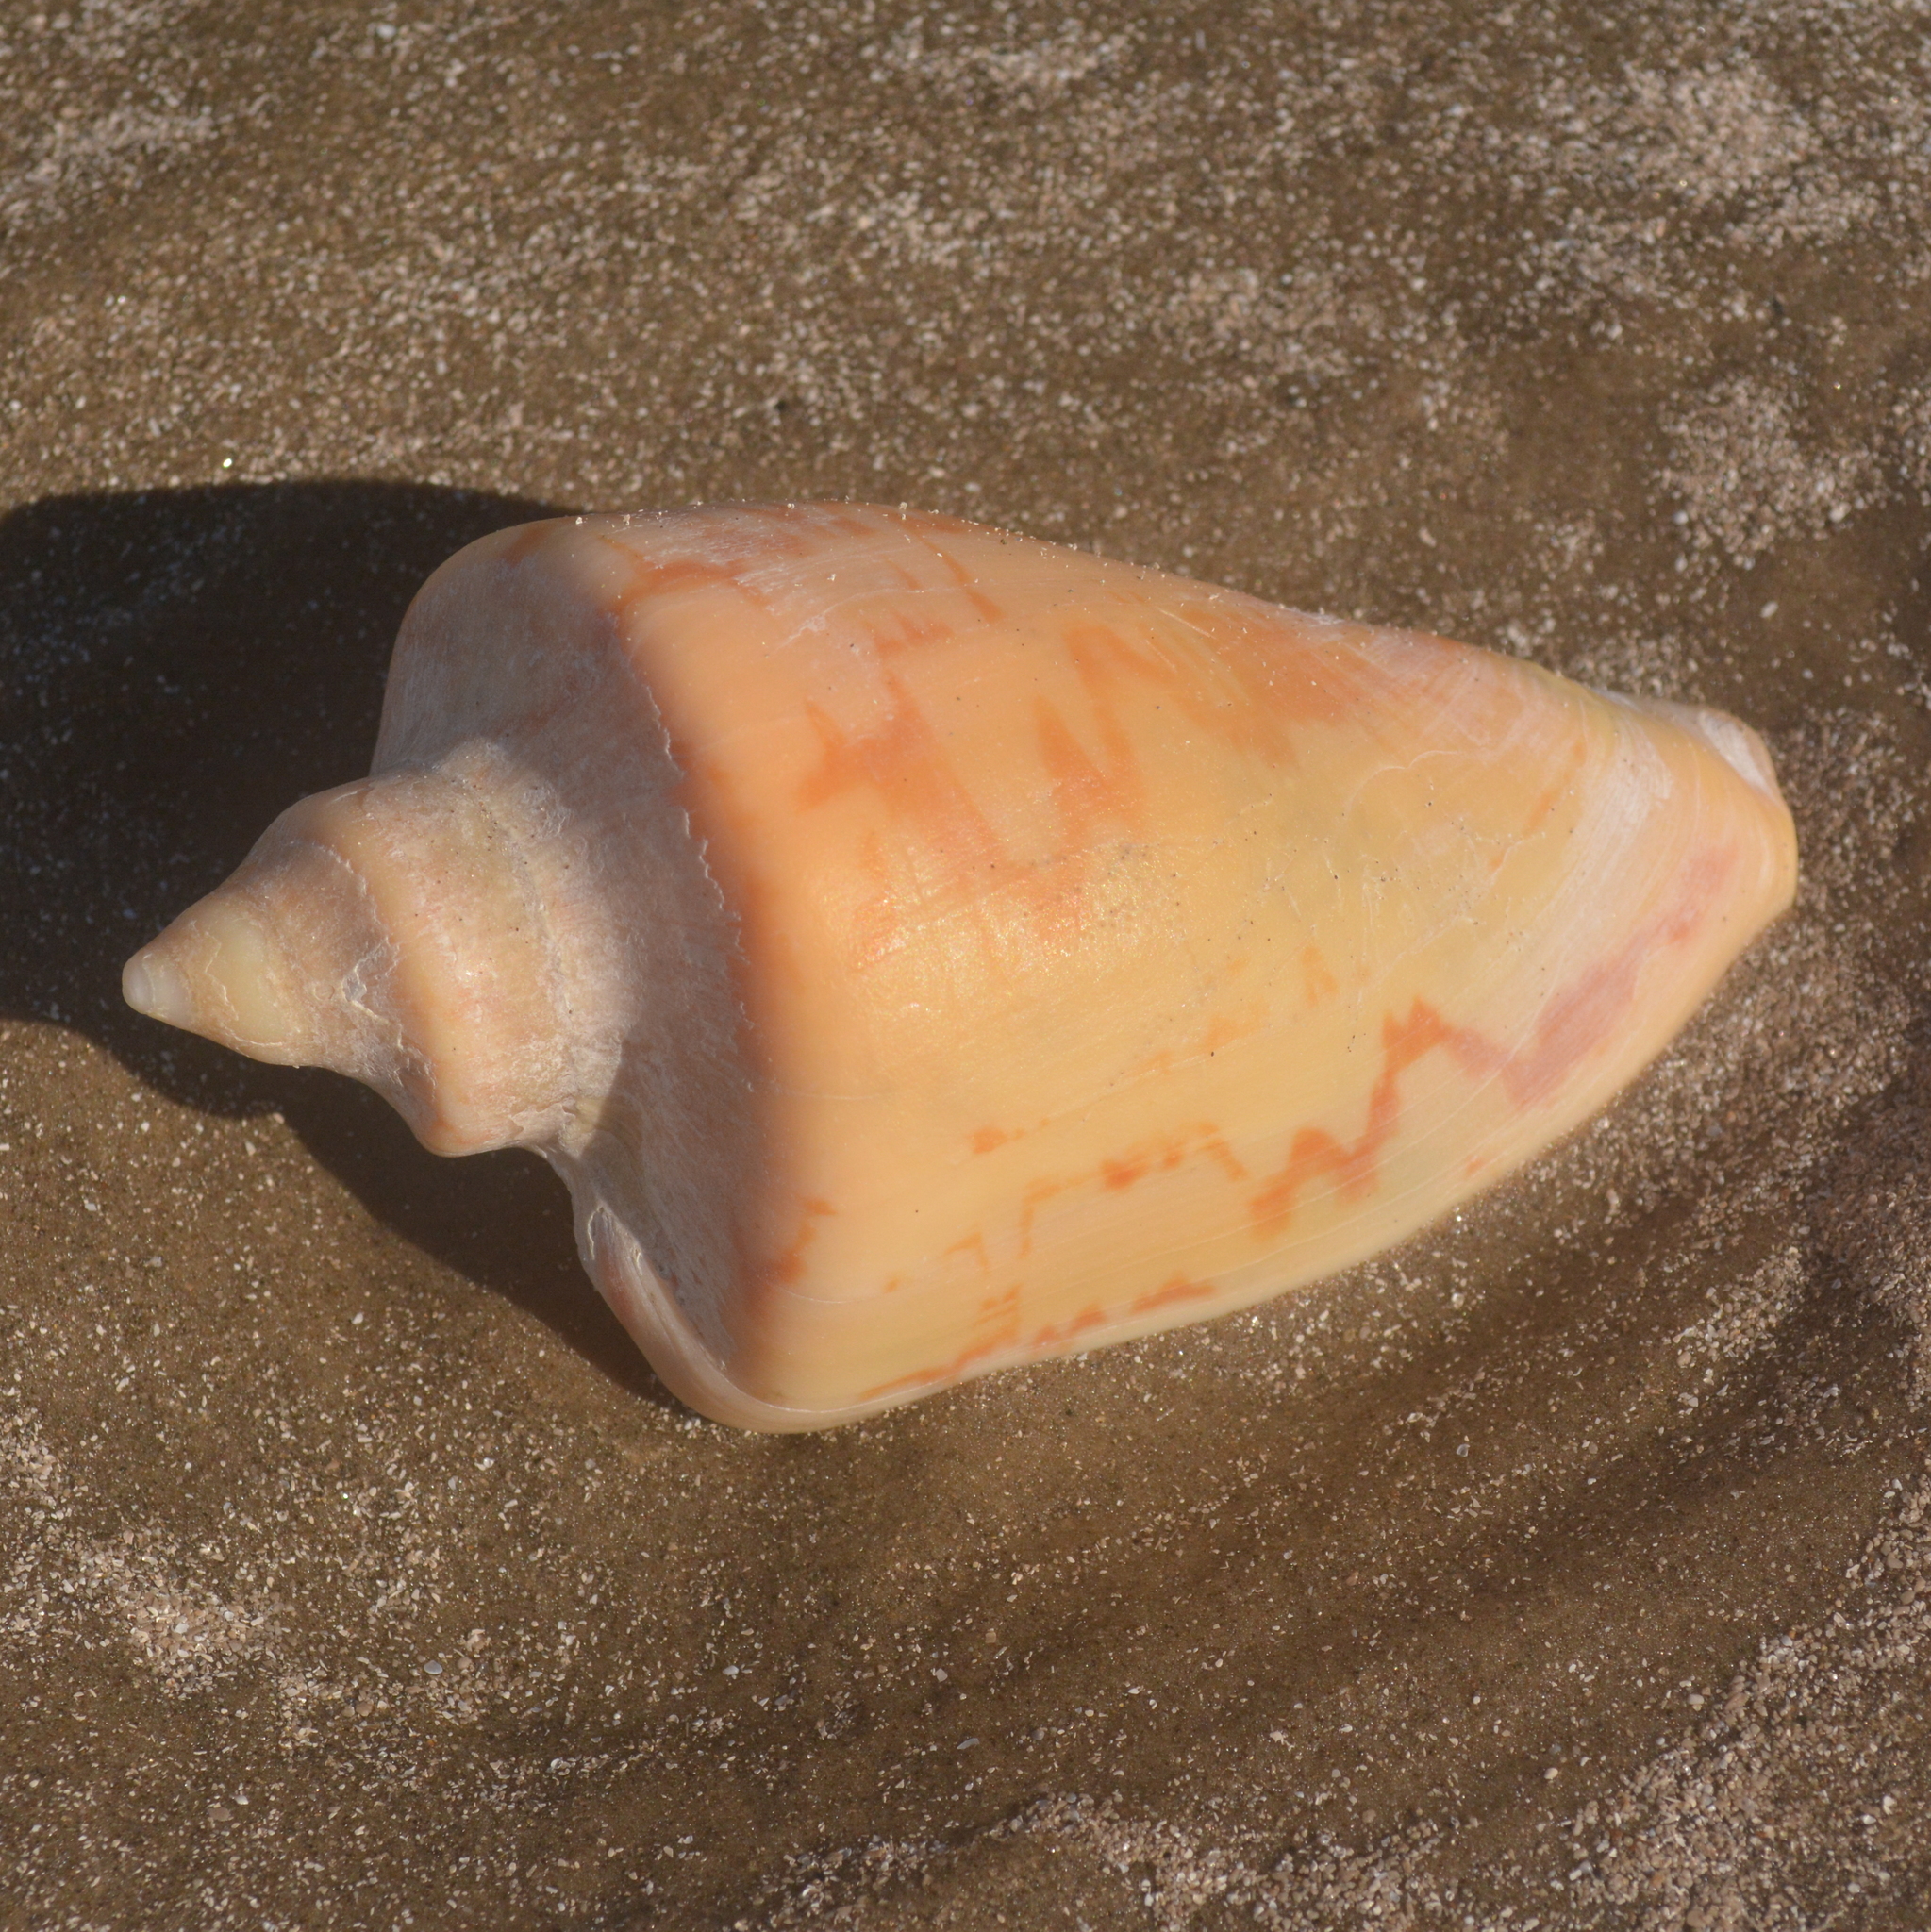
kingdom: Animalia
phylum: Mollusca
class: Gastropoda
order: Neogastropoda
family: Volutidae
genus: Zidona
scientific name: Zidona dufresnii
